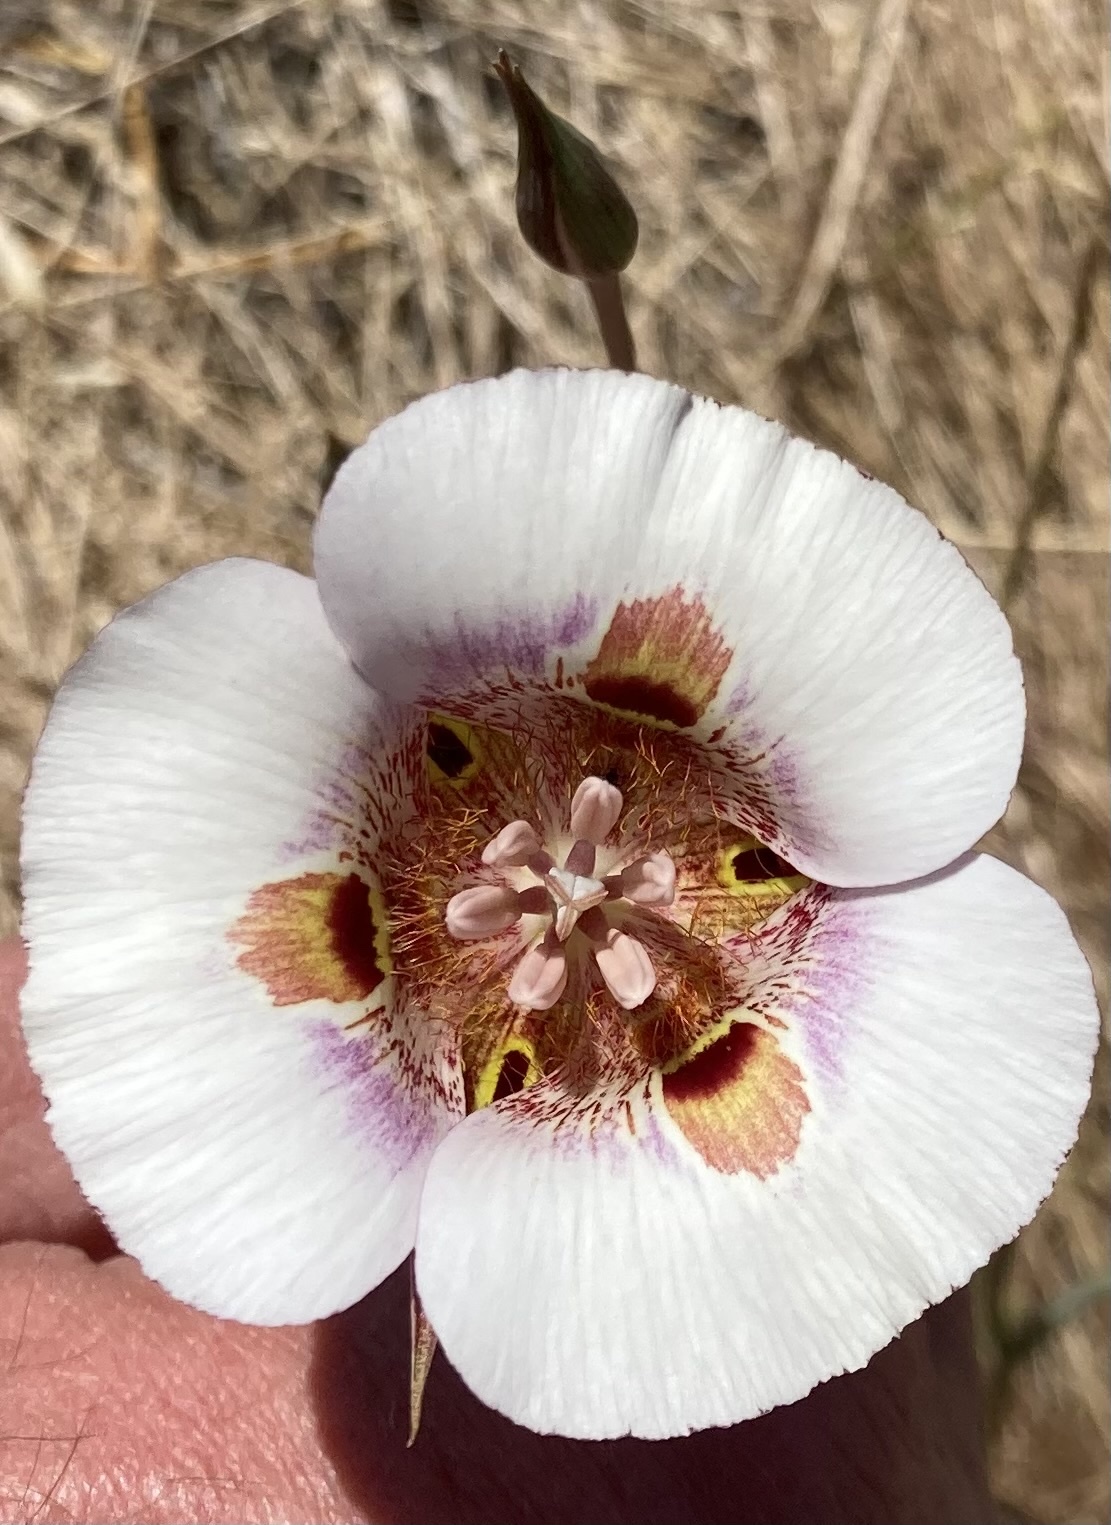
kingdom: Plantae
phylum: Tracheophyta
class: Liliopsida
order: Liliales
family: Liliaceae
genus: Calochortus
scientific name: Calochortus argillosus
